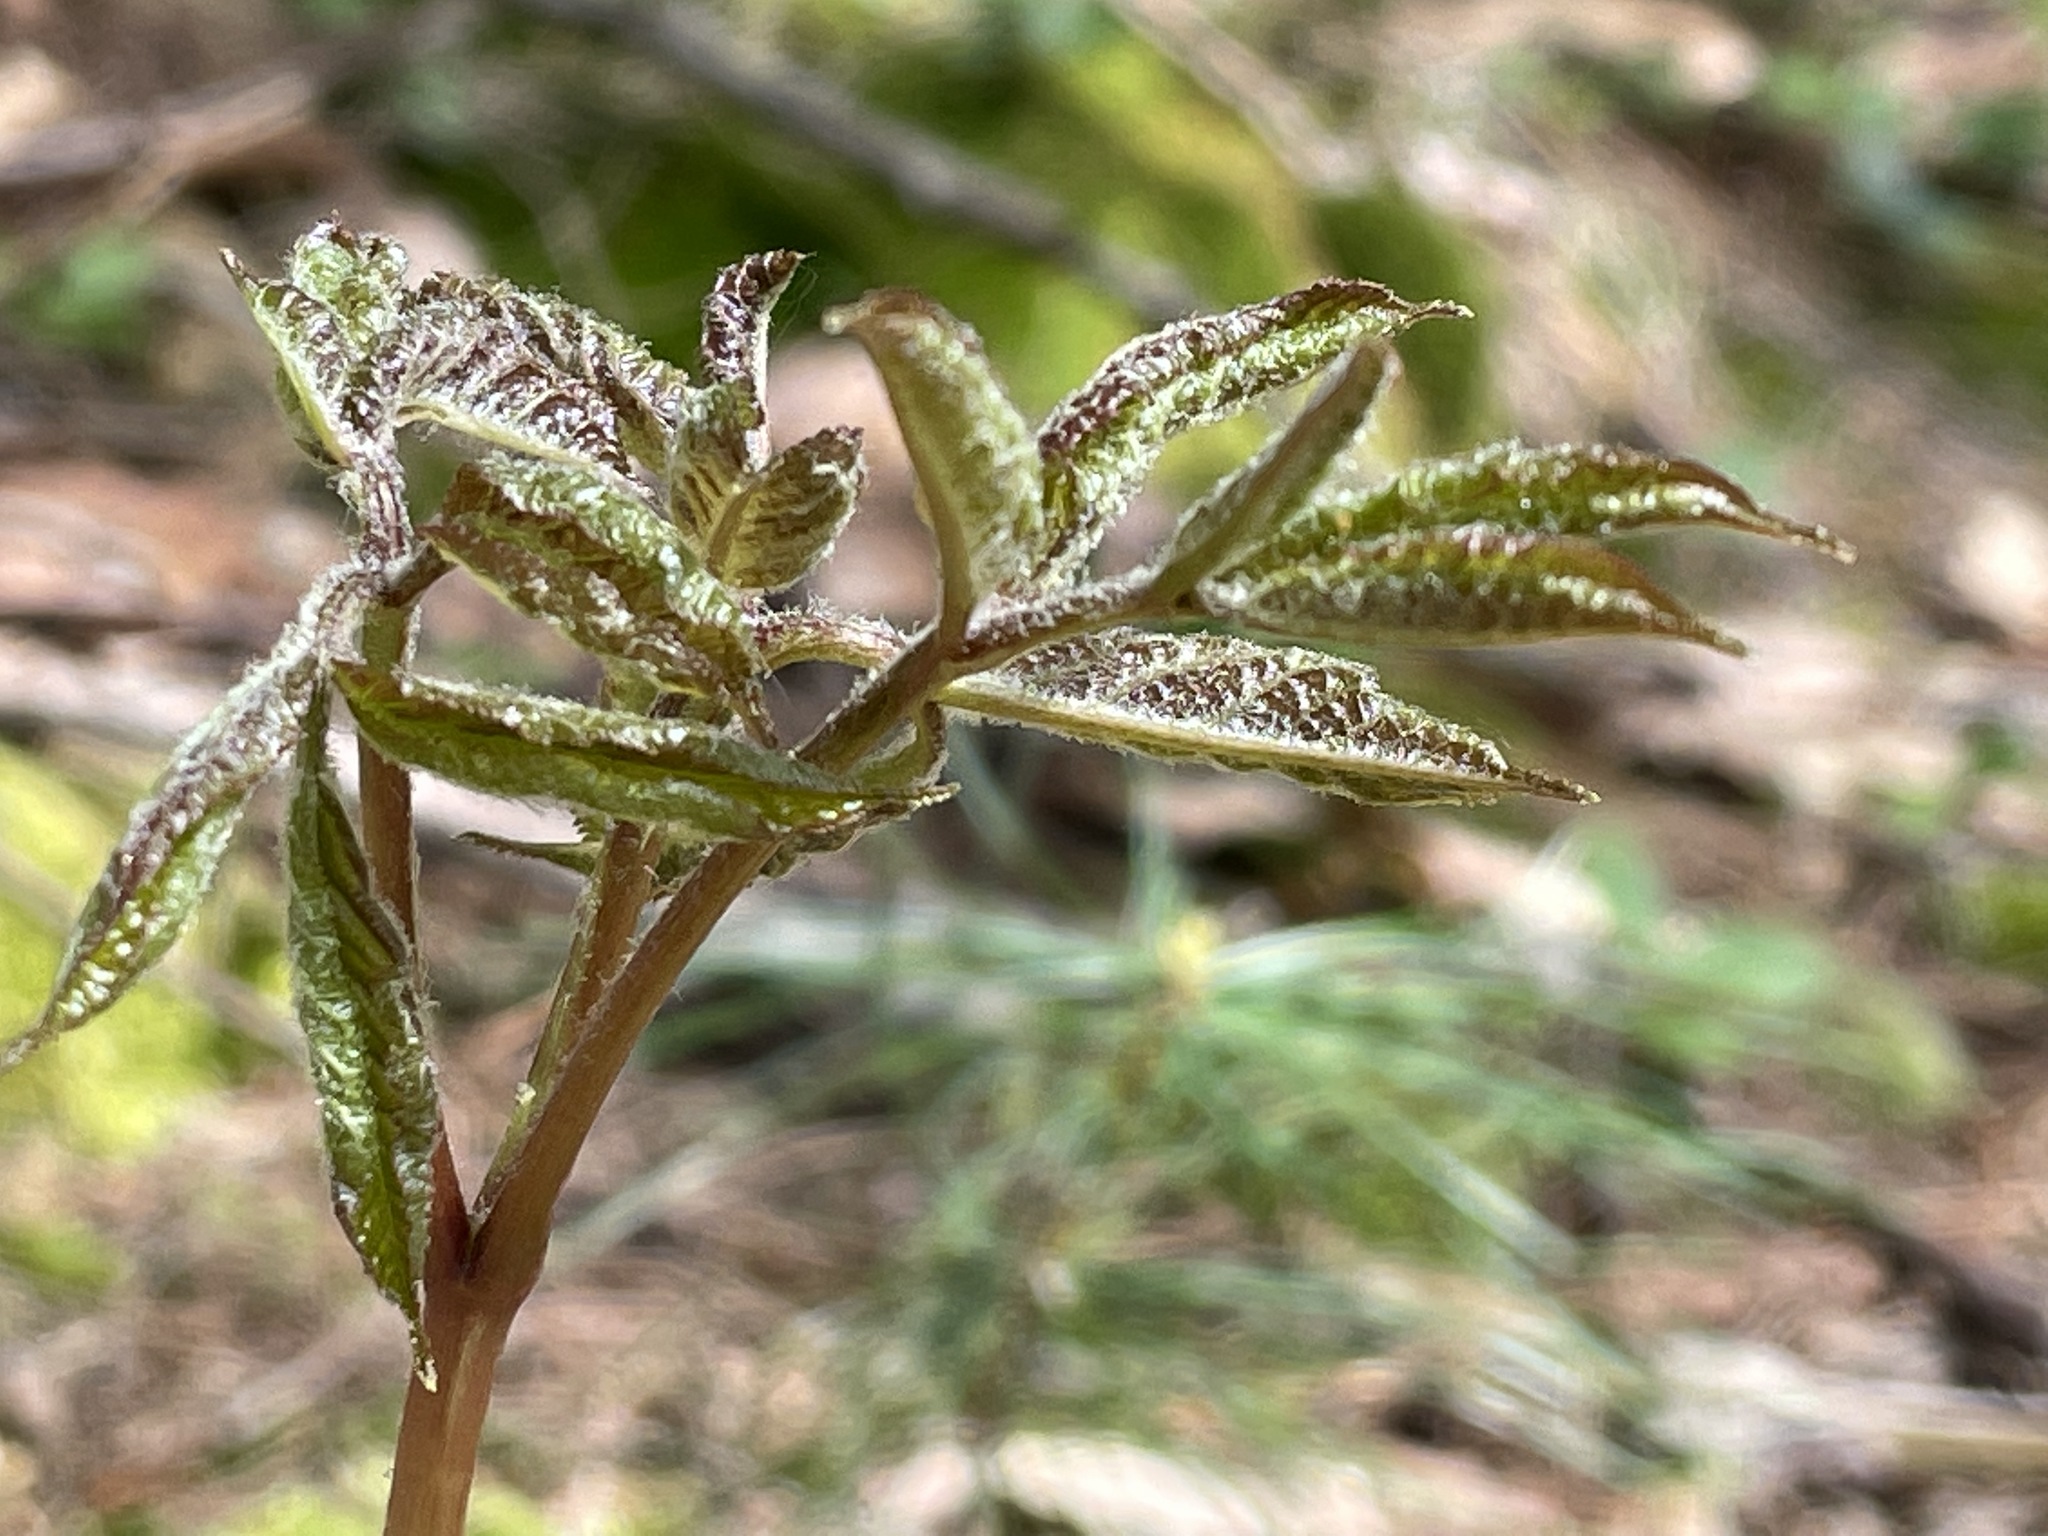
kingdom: Plantae
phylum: Tracheophyta
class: Magnoliopsida
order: Apiales
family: Araliaceae
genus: Aralia
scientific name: Aralia nudicaulis
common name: Wild sarsaparilla
